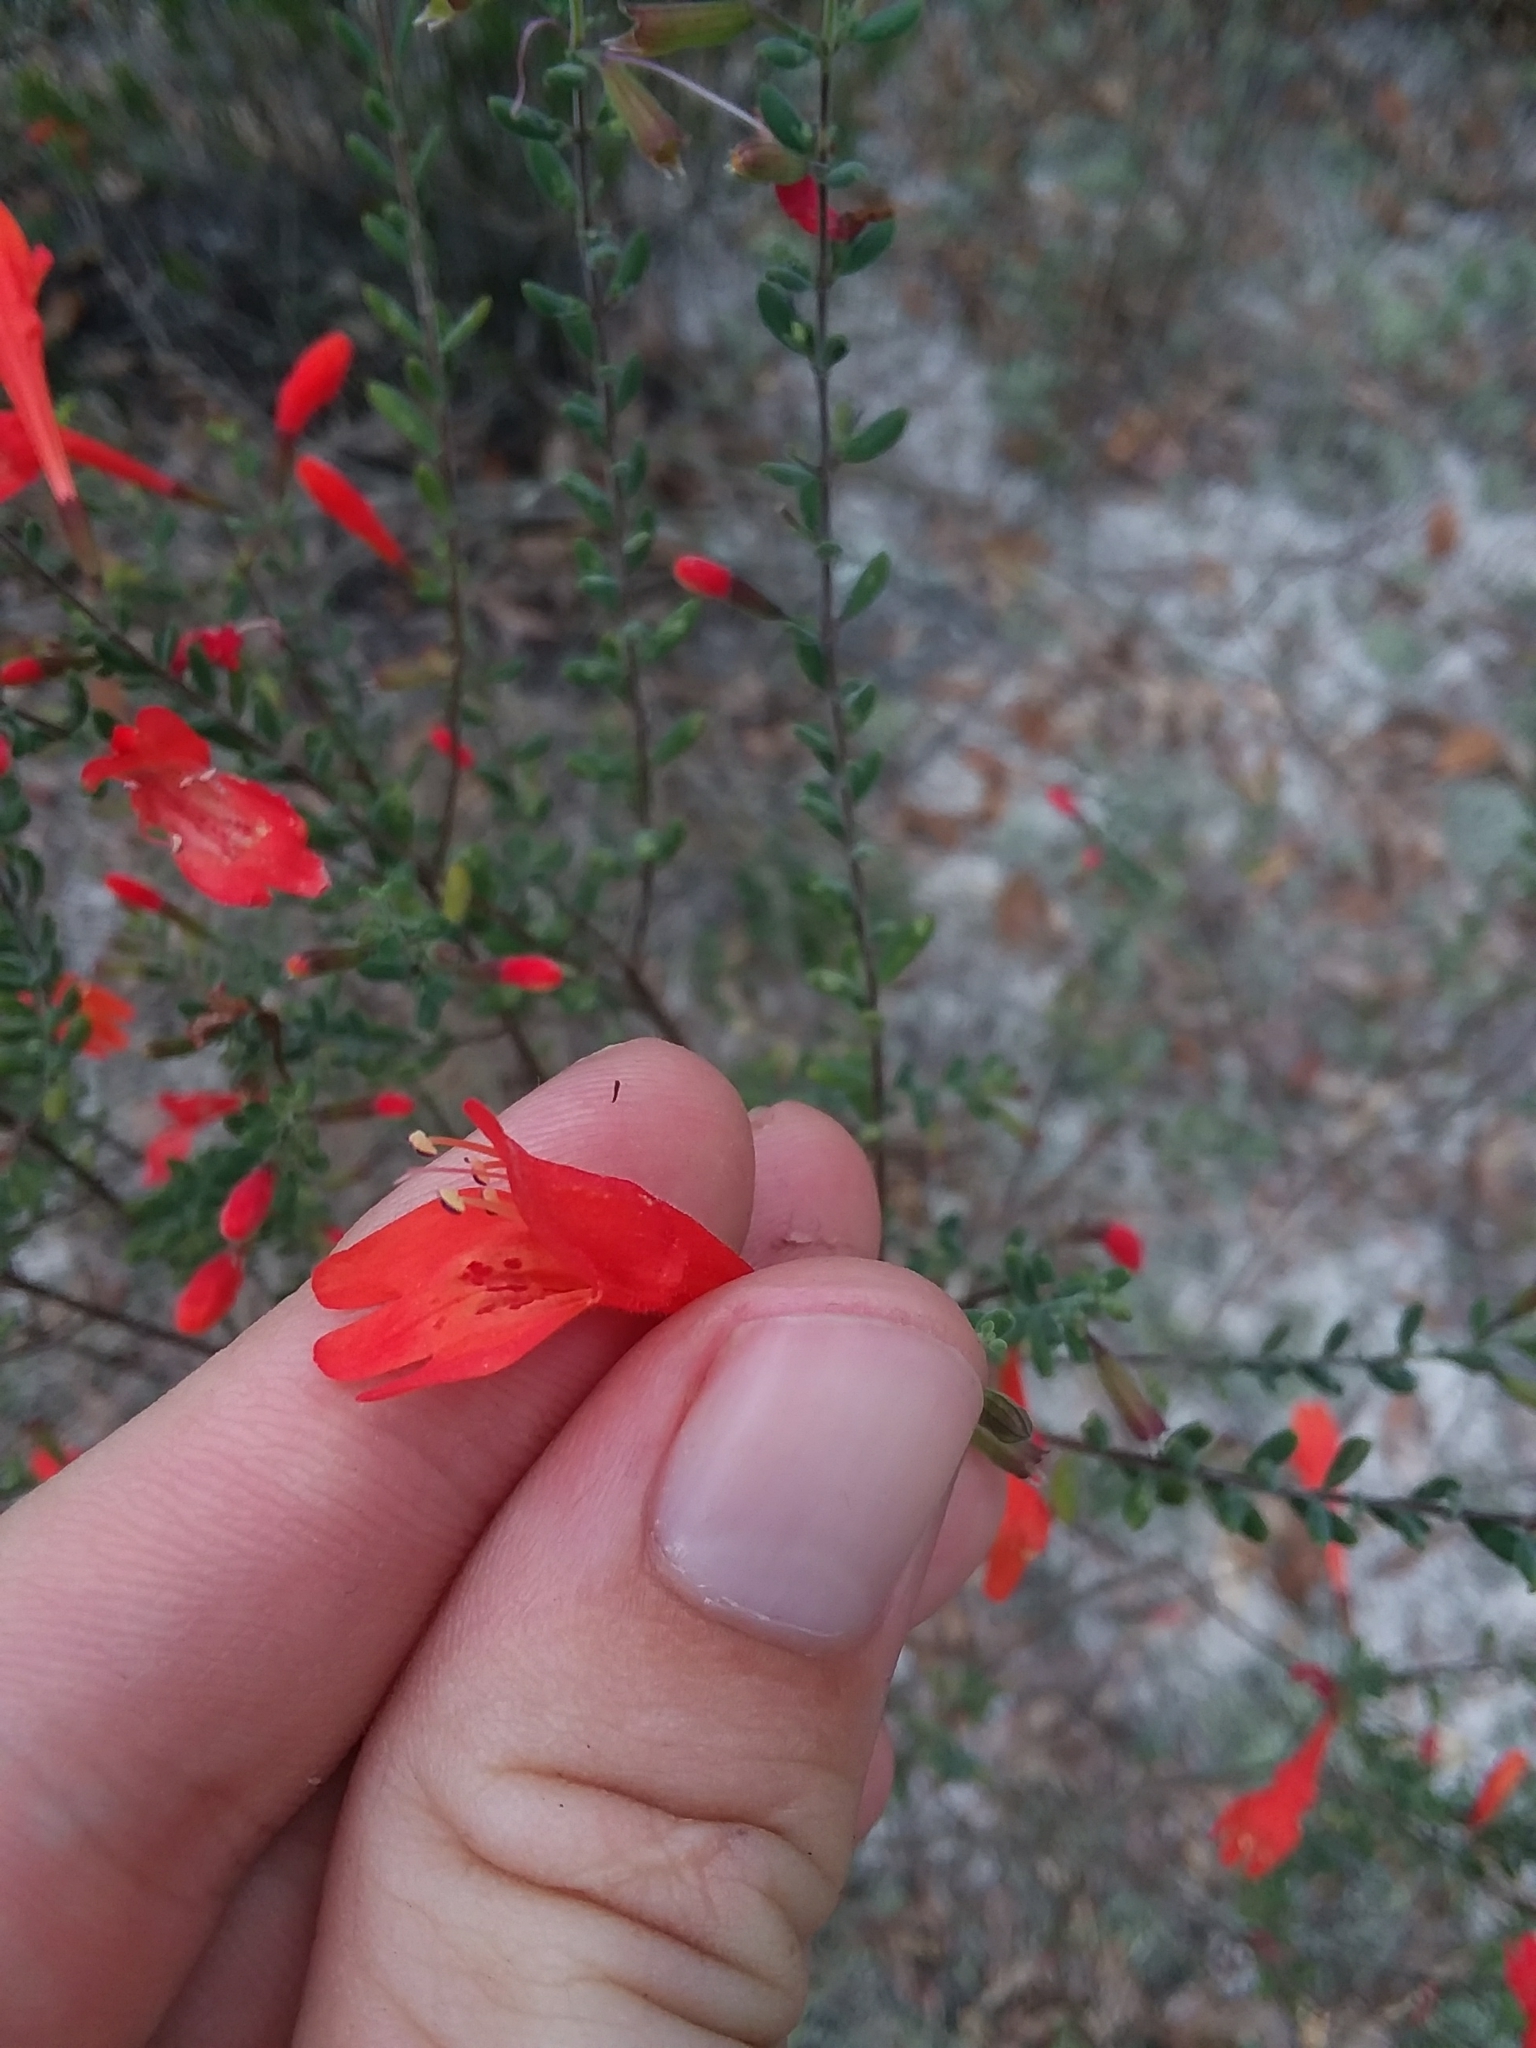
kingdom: Plantae
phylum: Tracheophyta
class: Magnoliopsida
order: Lamiales
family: Lamiaceae
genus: Clinopodium
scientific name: Clinopodium coccineum
